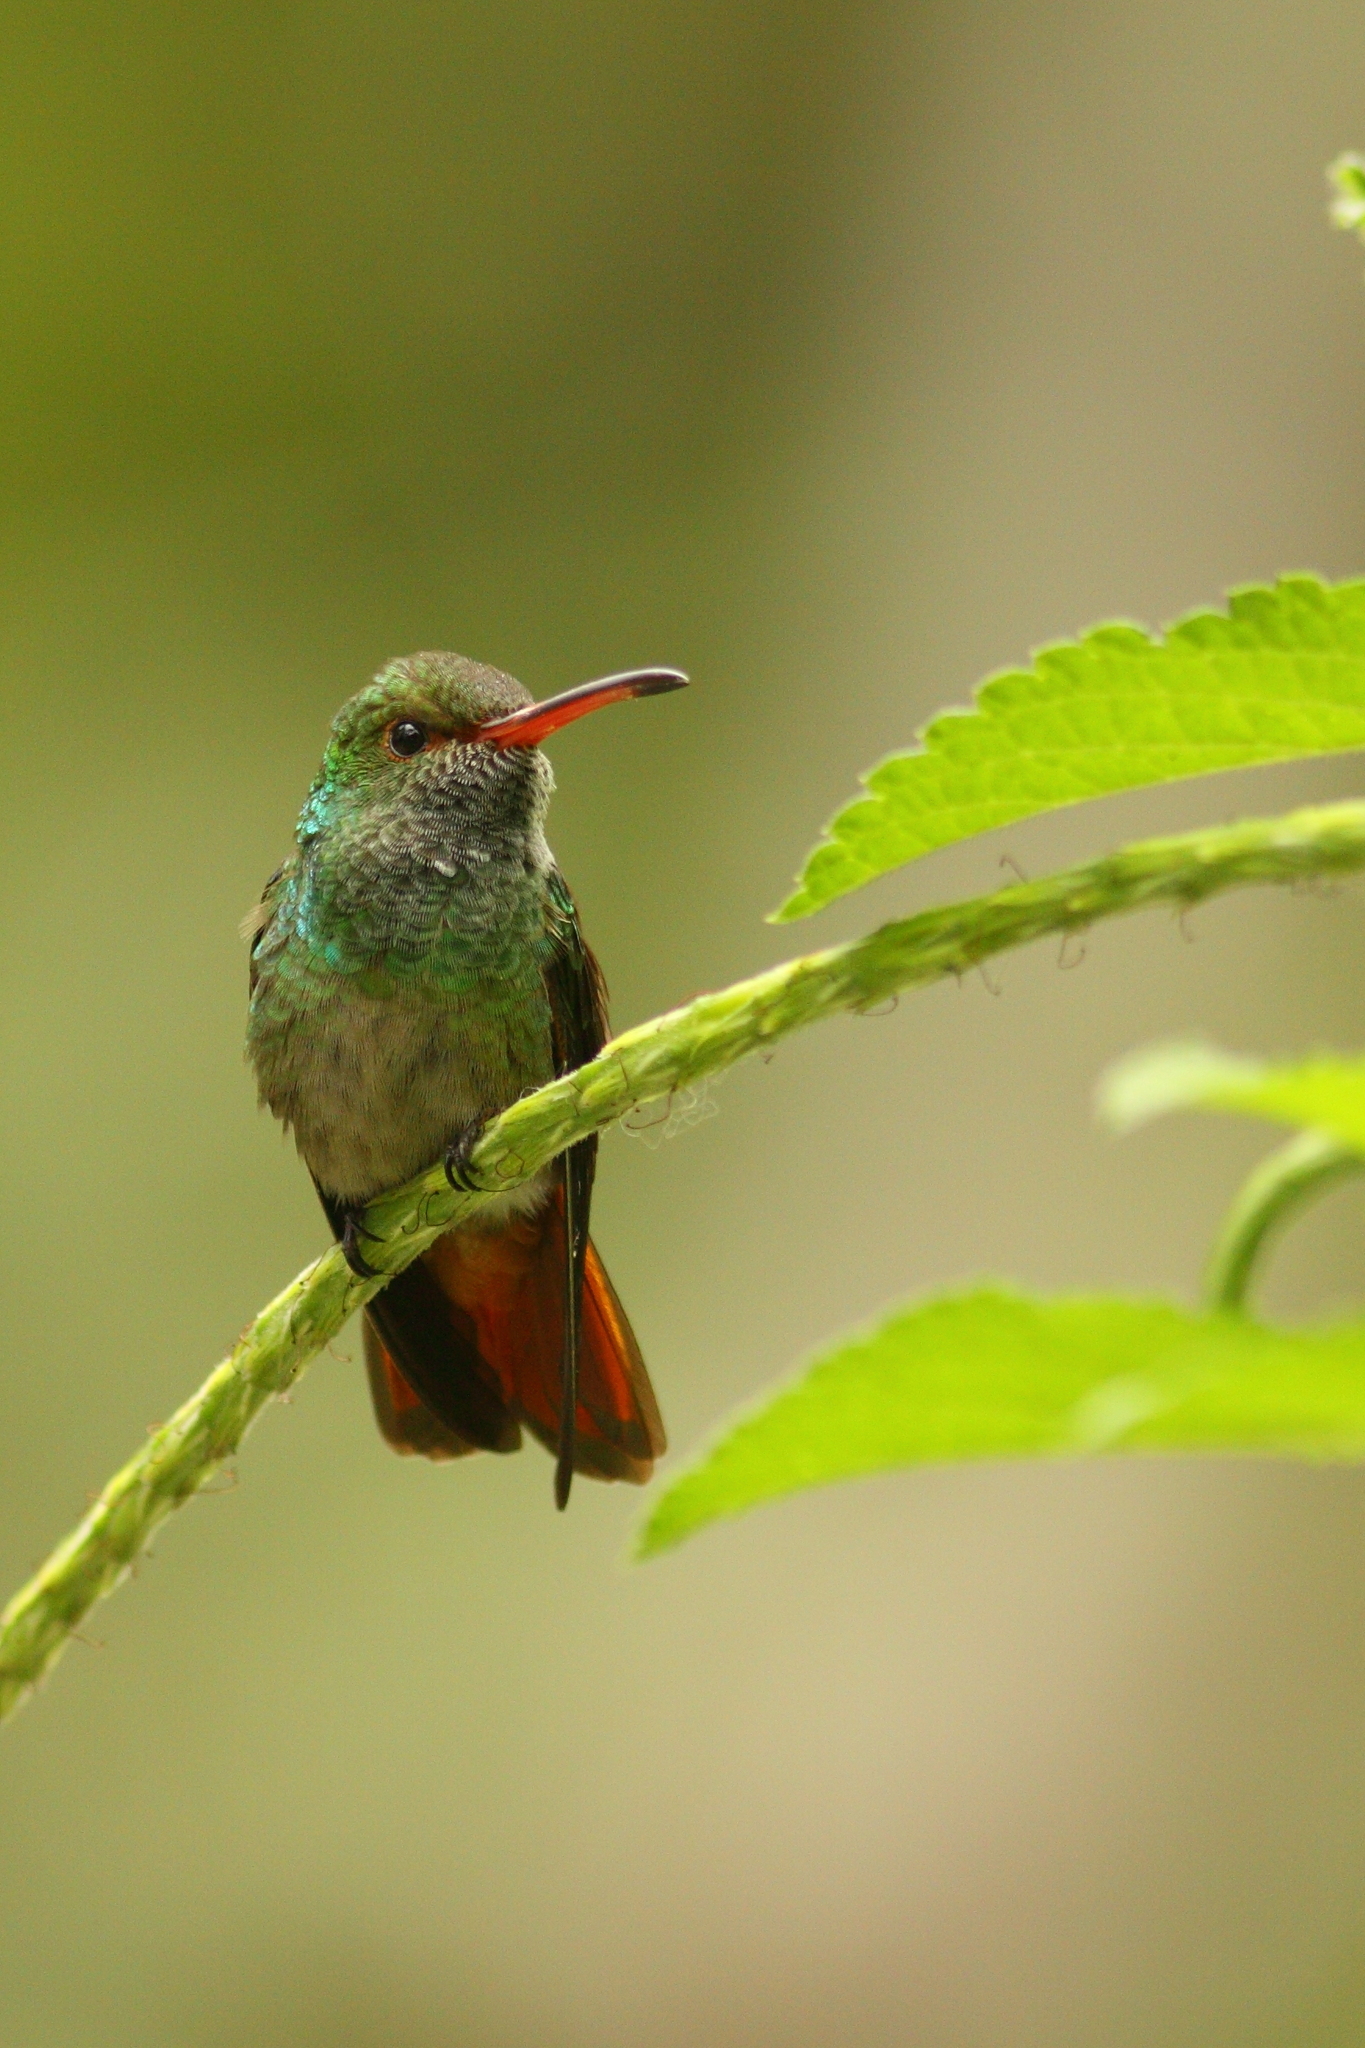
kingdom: Animalia
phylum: Chordata
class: Aves
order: Apodiformes
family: Trochilidae
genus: Amazilia
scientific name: Amazilia tzacatl
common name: Rufous-tailed hummingbird
